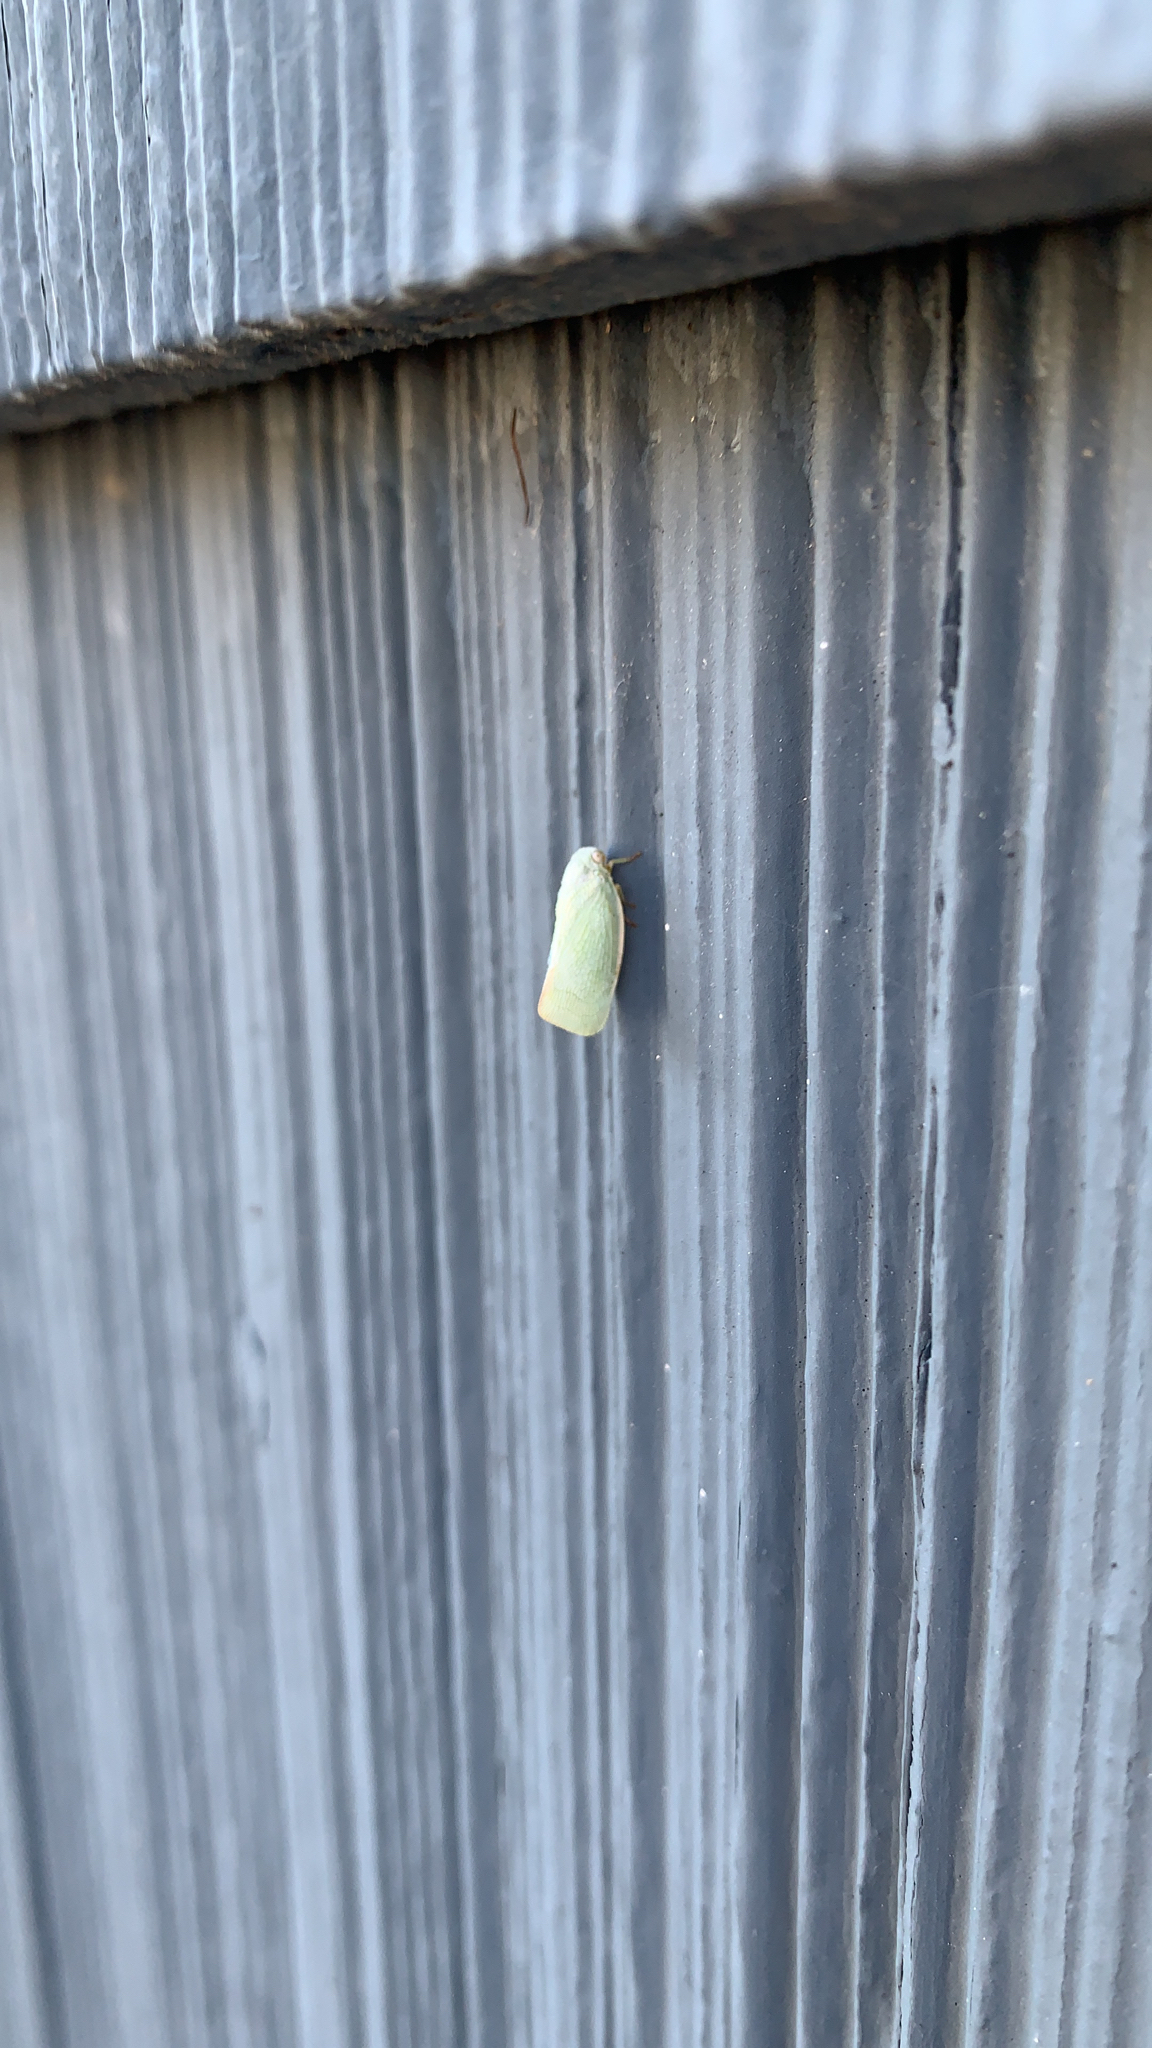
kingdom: Animalia
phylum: Arthropoda
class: Insecta
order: Hemiptera
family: Flatidae
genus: Flatormenis
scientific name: Flatormenis proxima
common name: Northern flatid planthopper
